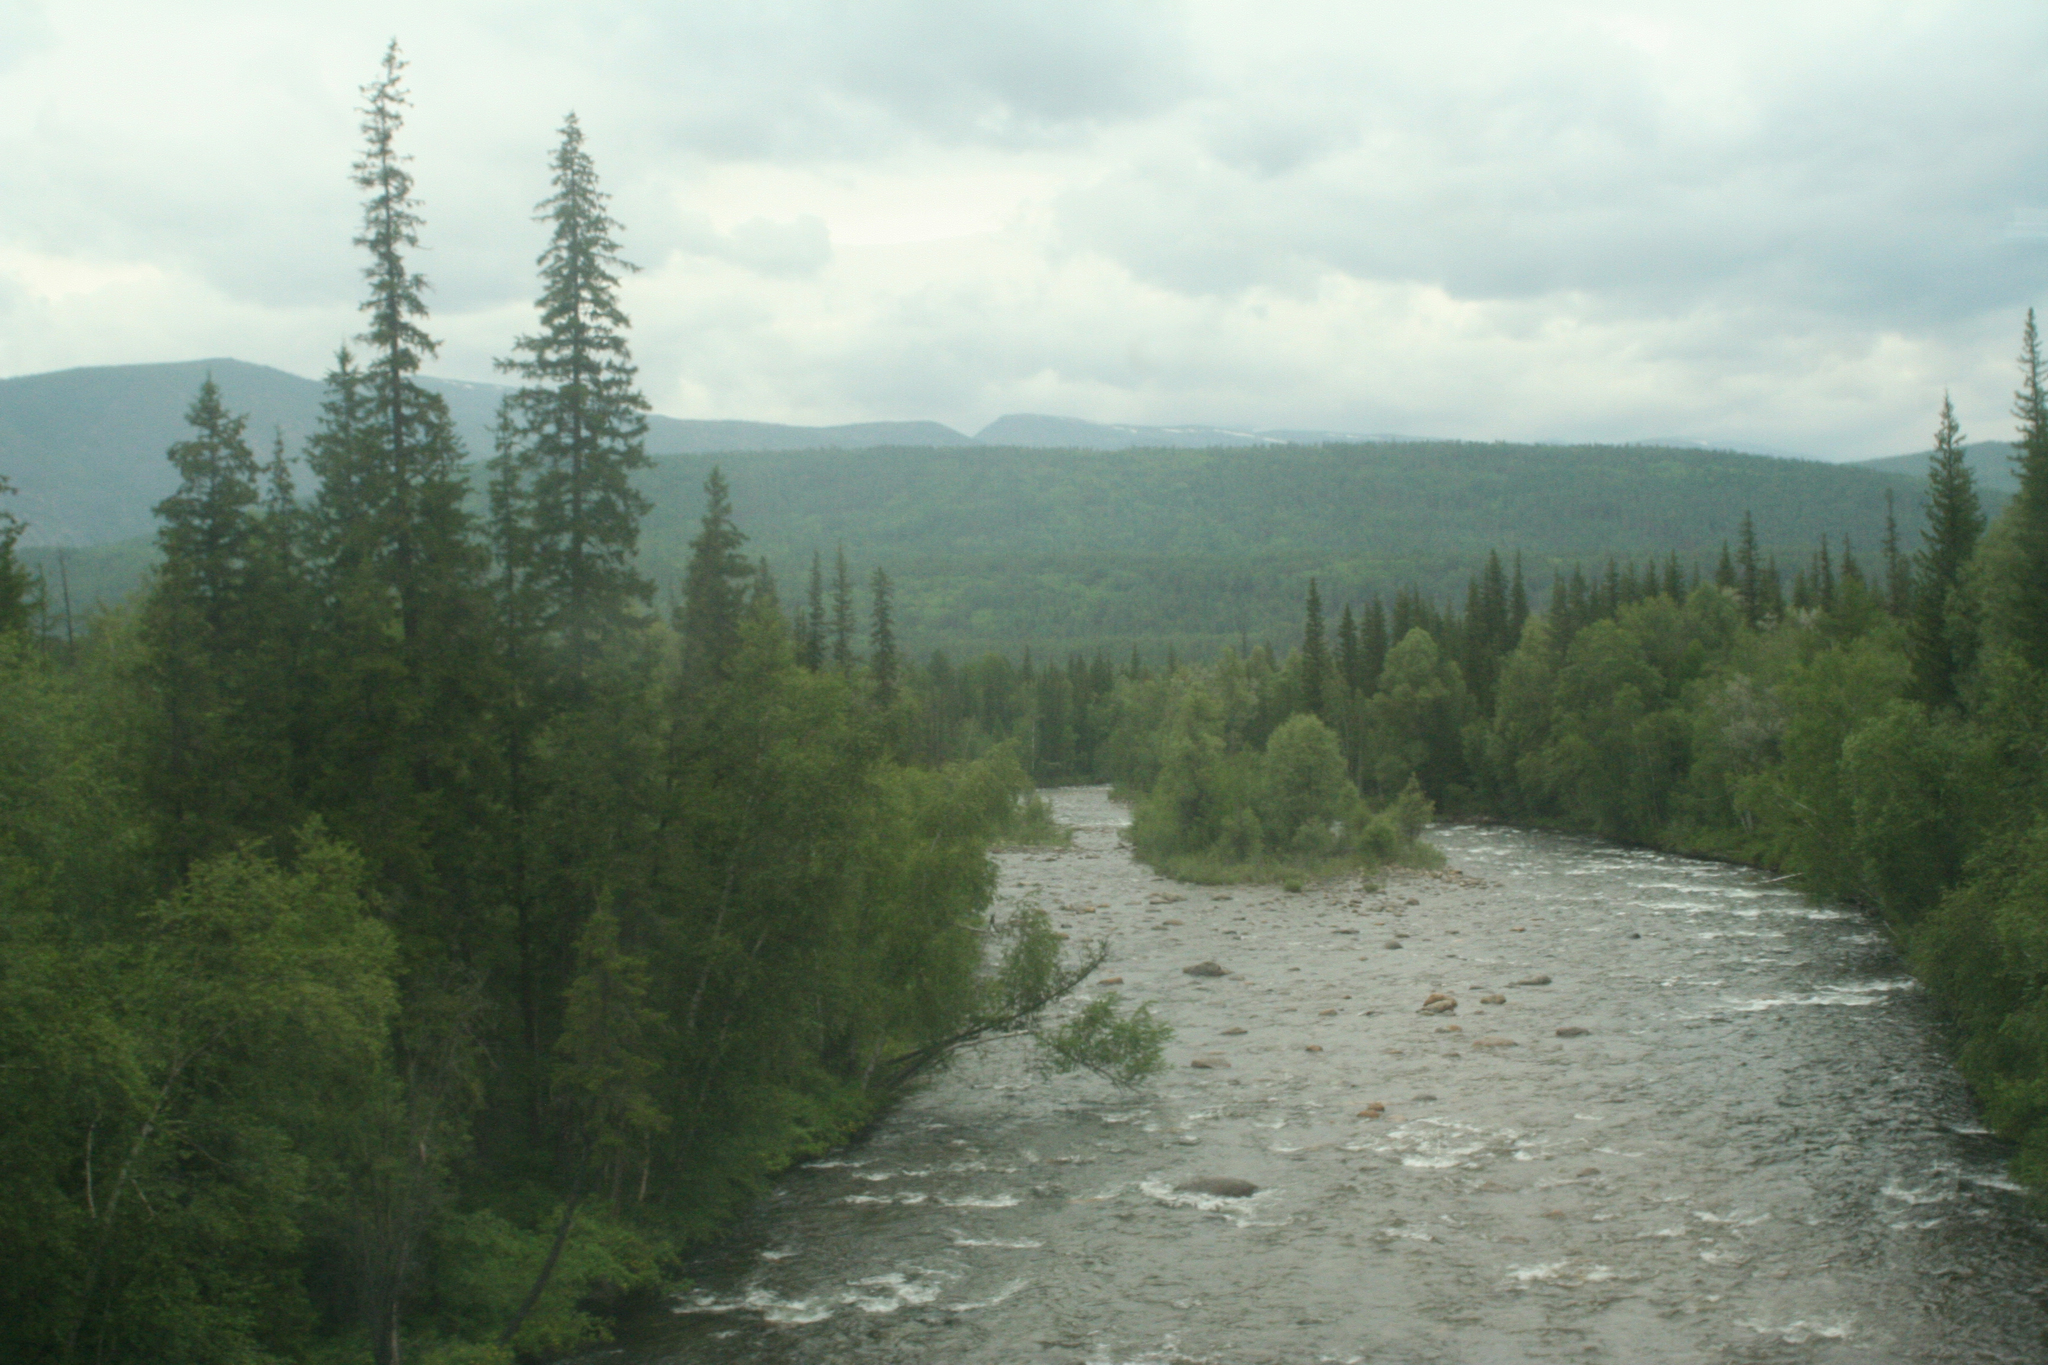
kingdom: Plantae
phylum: Tracheophyta
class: Pinopsida
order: Pinales
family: Pinaceae
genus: Picea
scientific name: Picea obovata
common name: Siberian spruce
